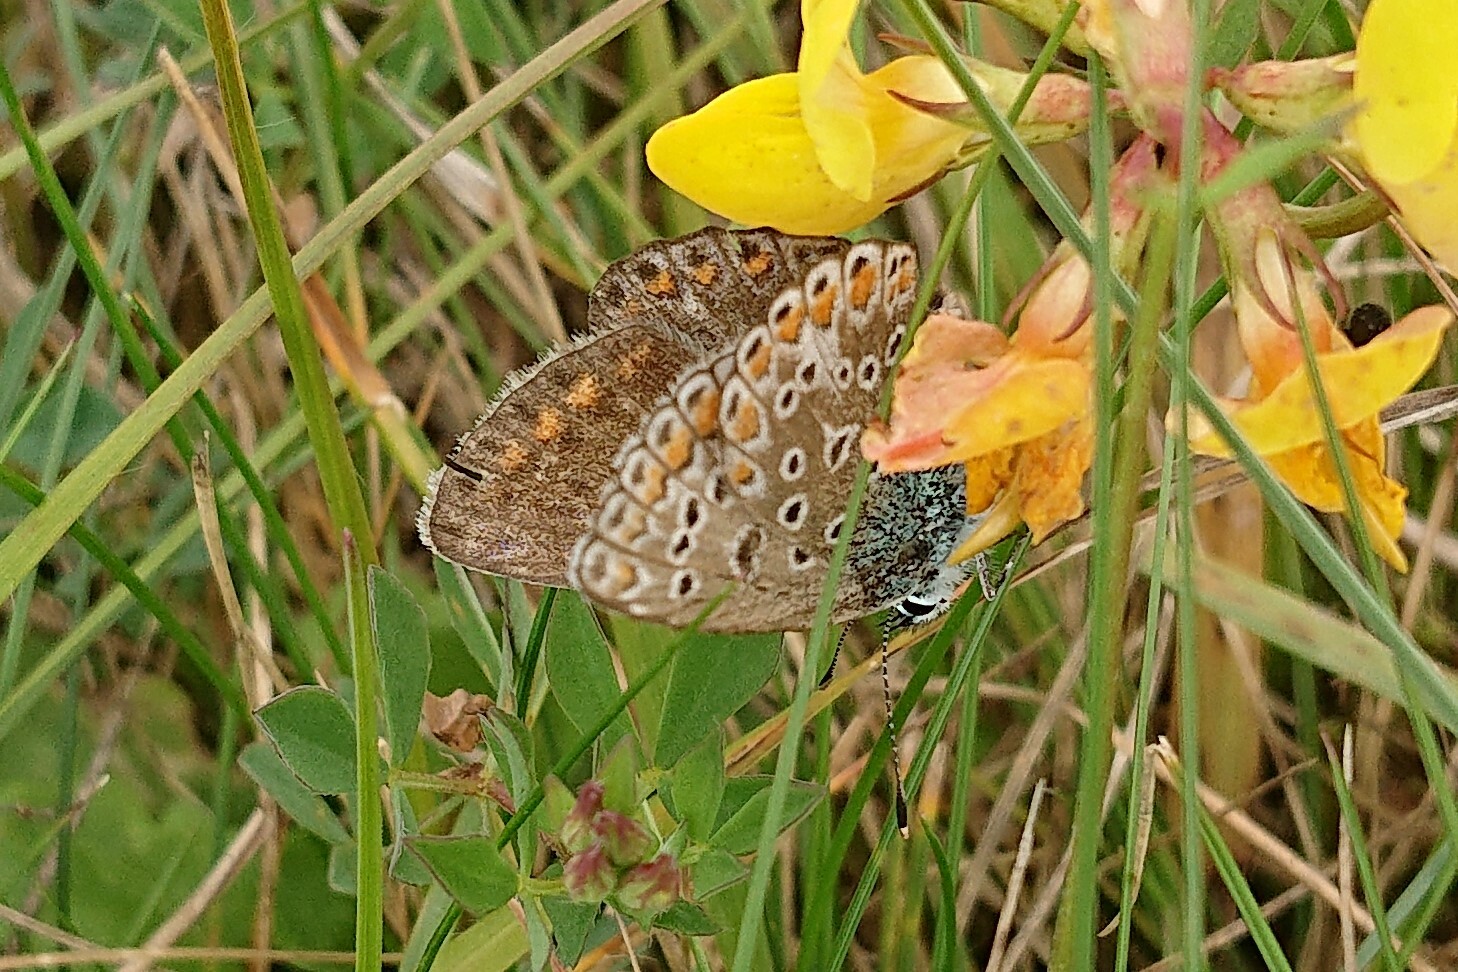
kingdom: Animalia
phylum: Arthropoda
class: Insecta
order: Lepidoptera
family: Lycaenidae
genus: Polyommatus
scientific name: Polyommatus icarus
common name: Common blue
